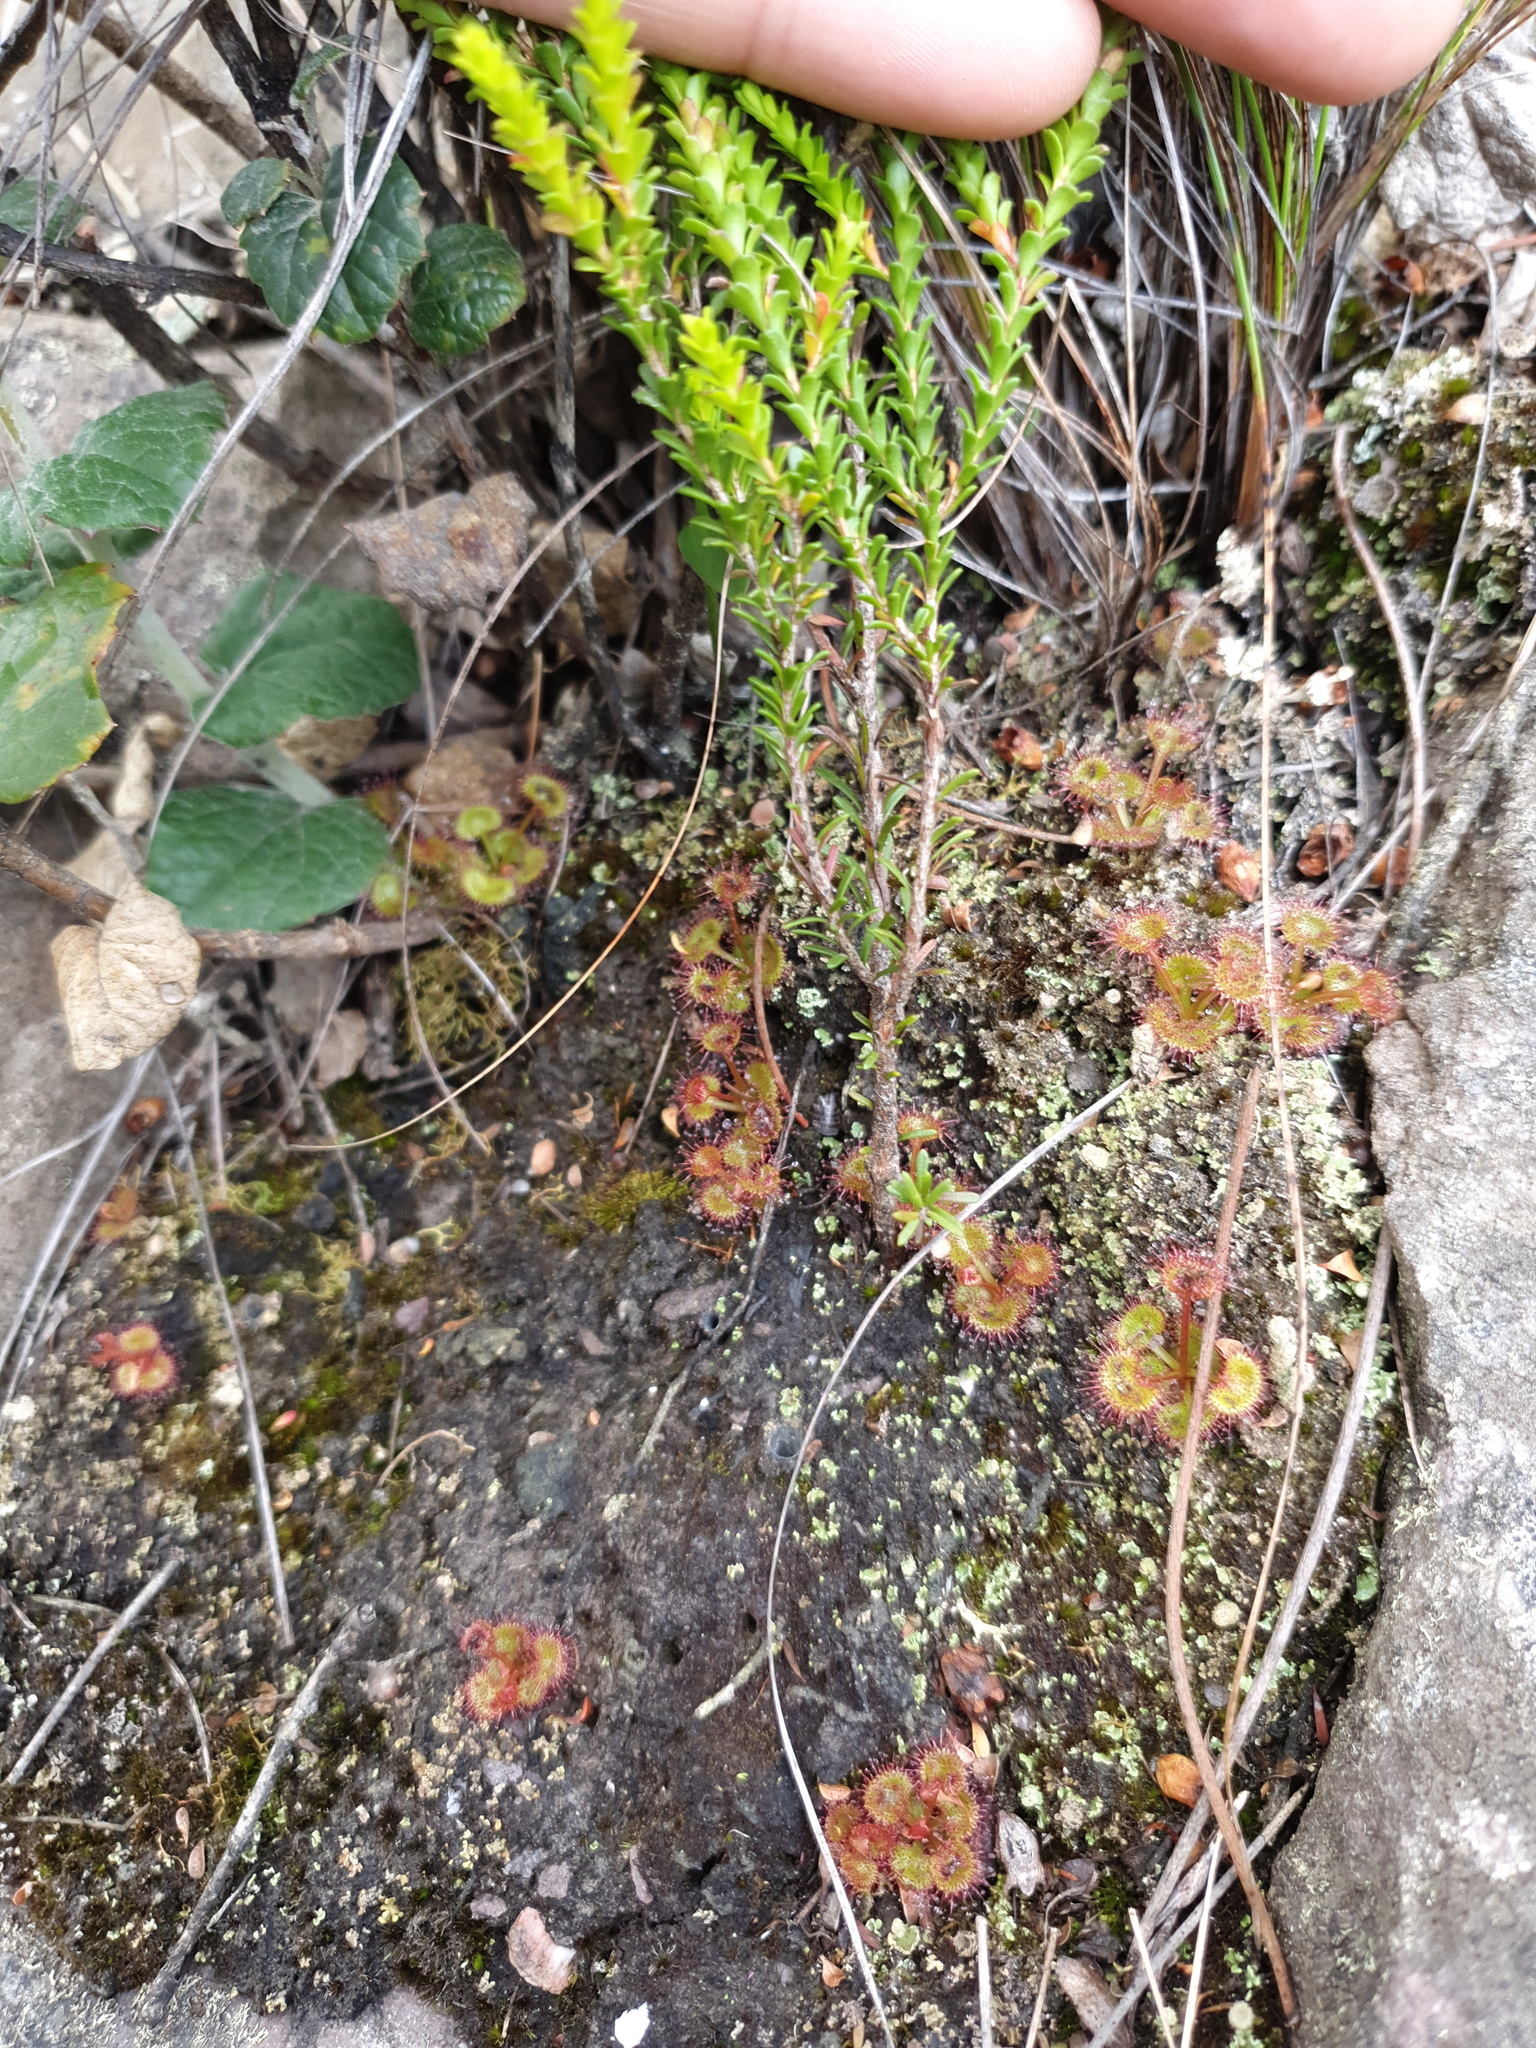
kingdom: Plantae
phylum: Tracheophyta
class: Magnoliopsida
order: Caryophyllales
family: Droseraceae
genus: Drosera
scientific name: Drosera monticola
